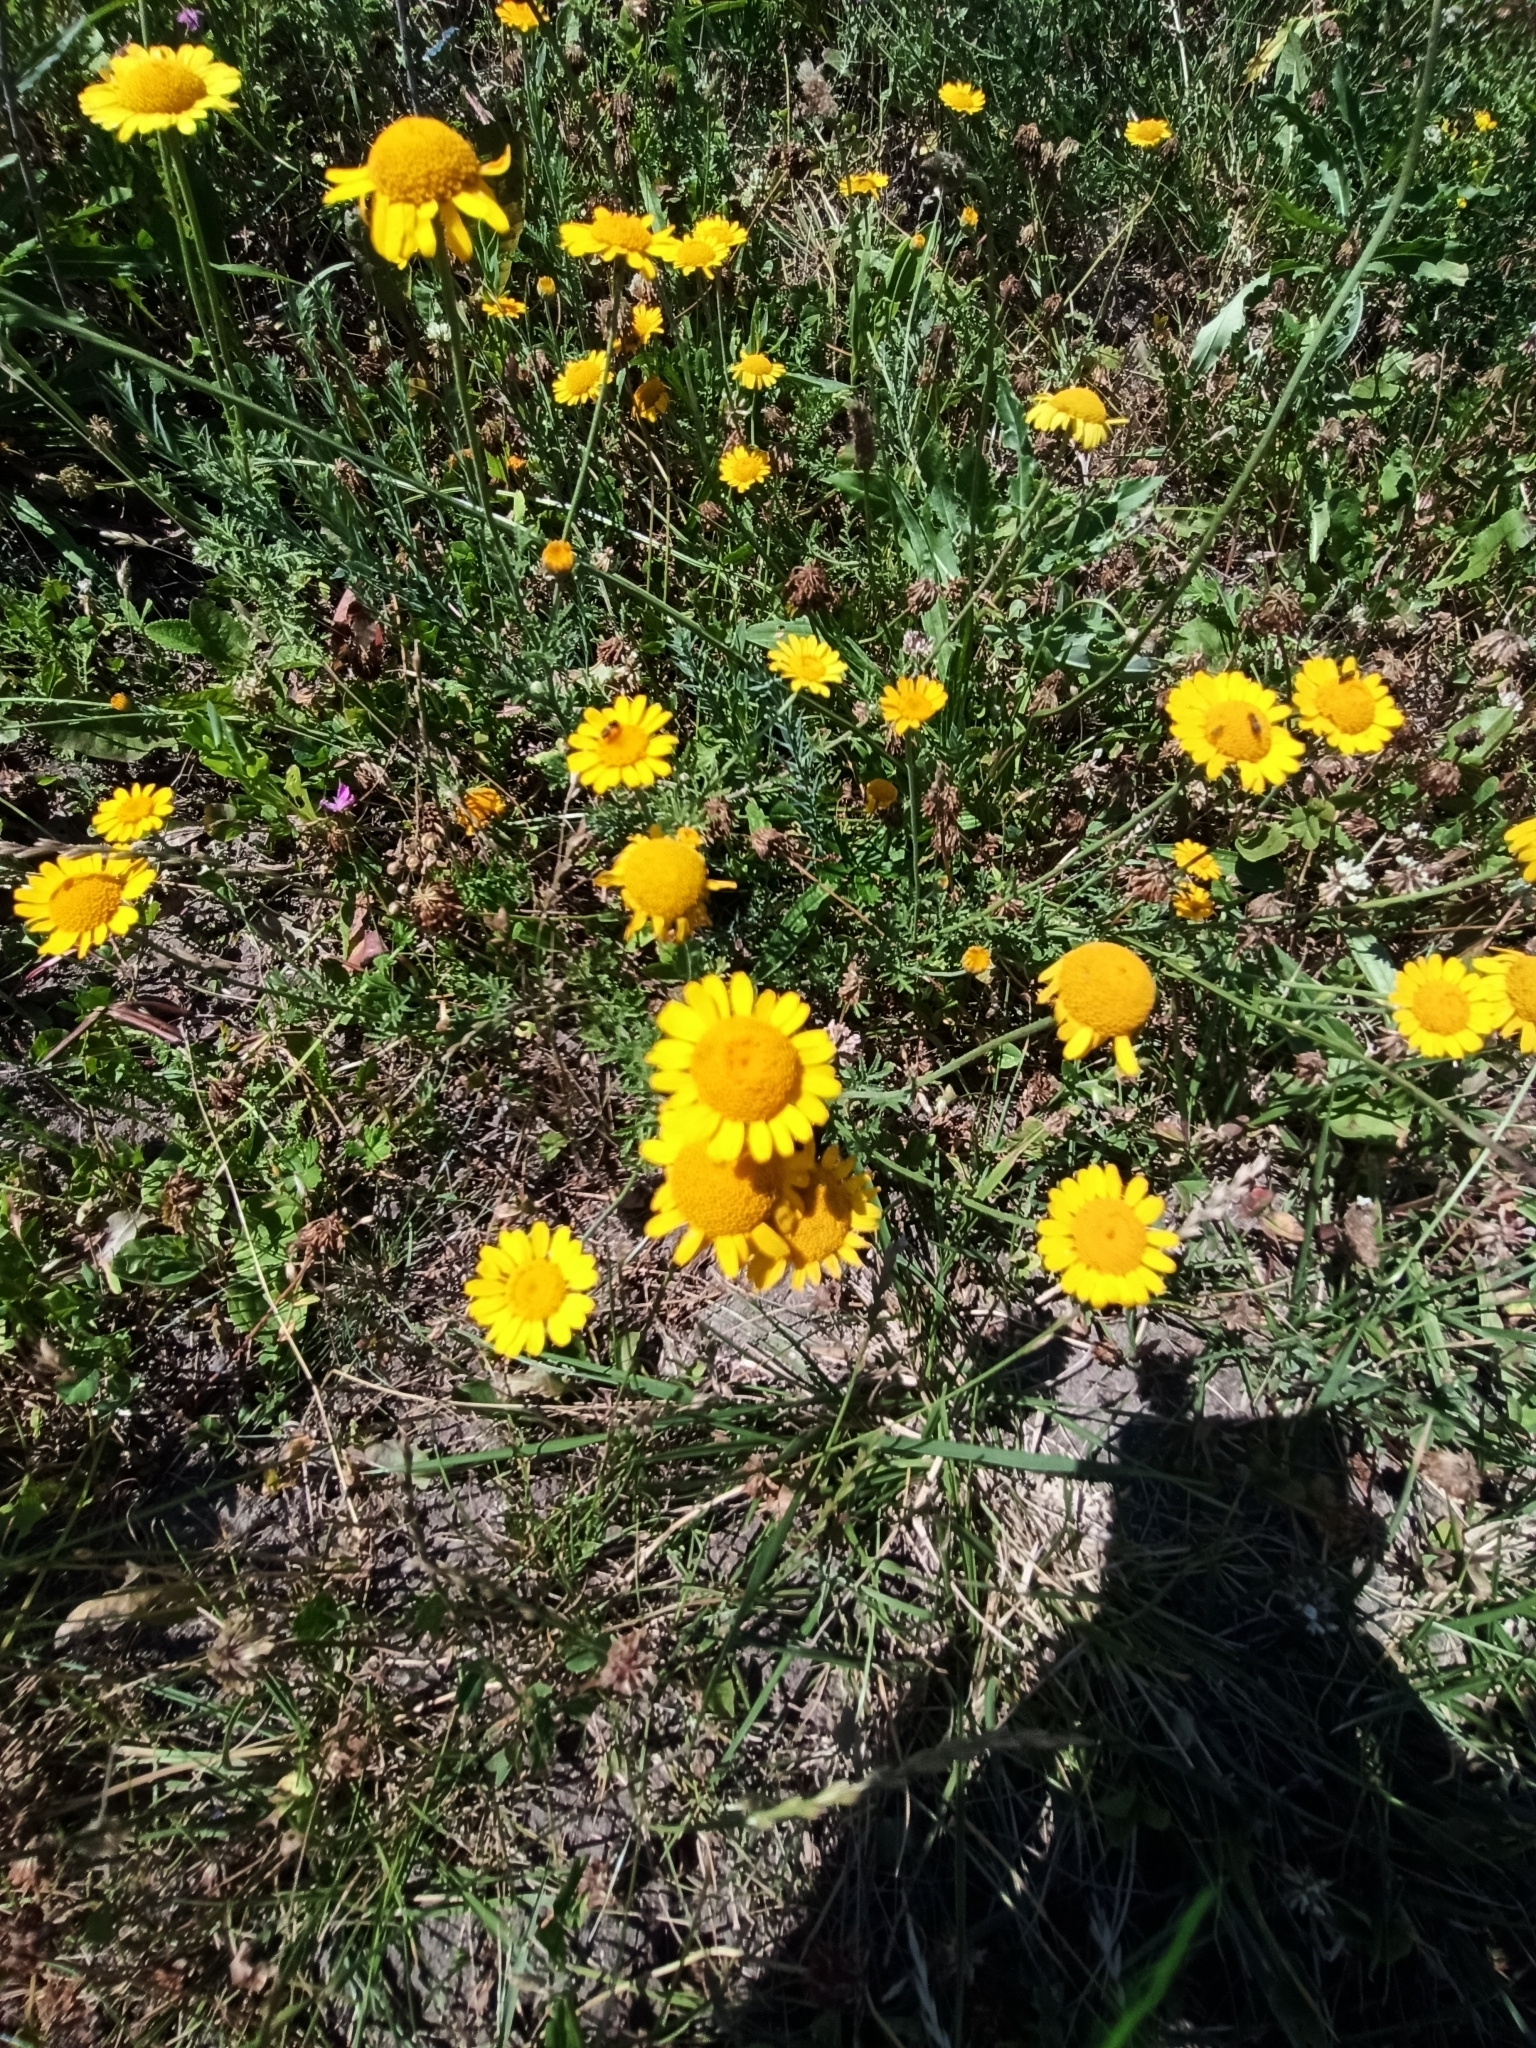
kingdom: Plantae
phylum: Tracheophyta
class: Magnoliopsida
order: Asterales
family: Asteraceae
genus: Cota
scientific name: Cota tinctoria
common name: Golden chamomile
